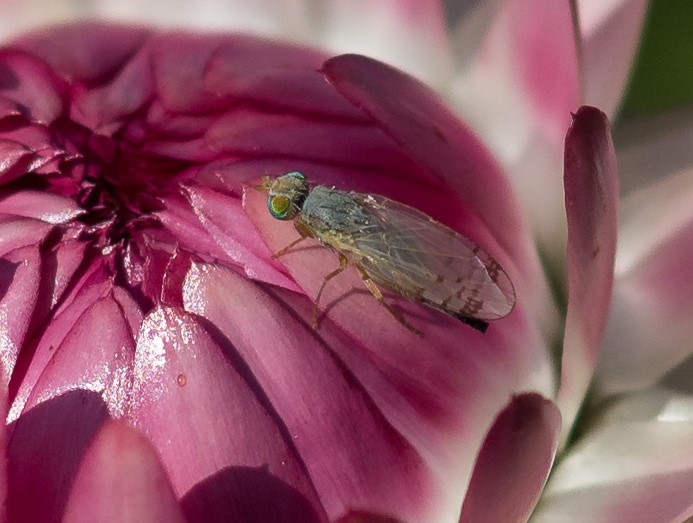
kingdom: Animalia
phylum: Arthropoda
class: Insecta
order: Diptera
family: Tephritidae
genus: Acanthiophilus
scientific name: Acanthiophilus helianthi
